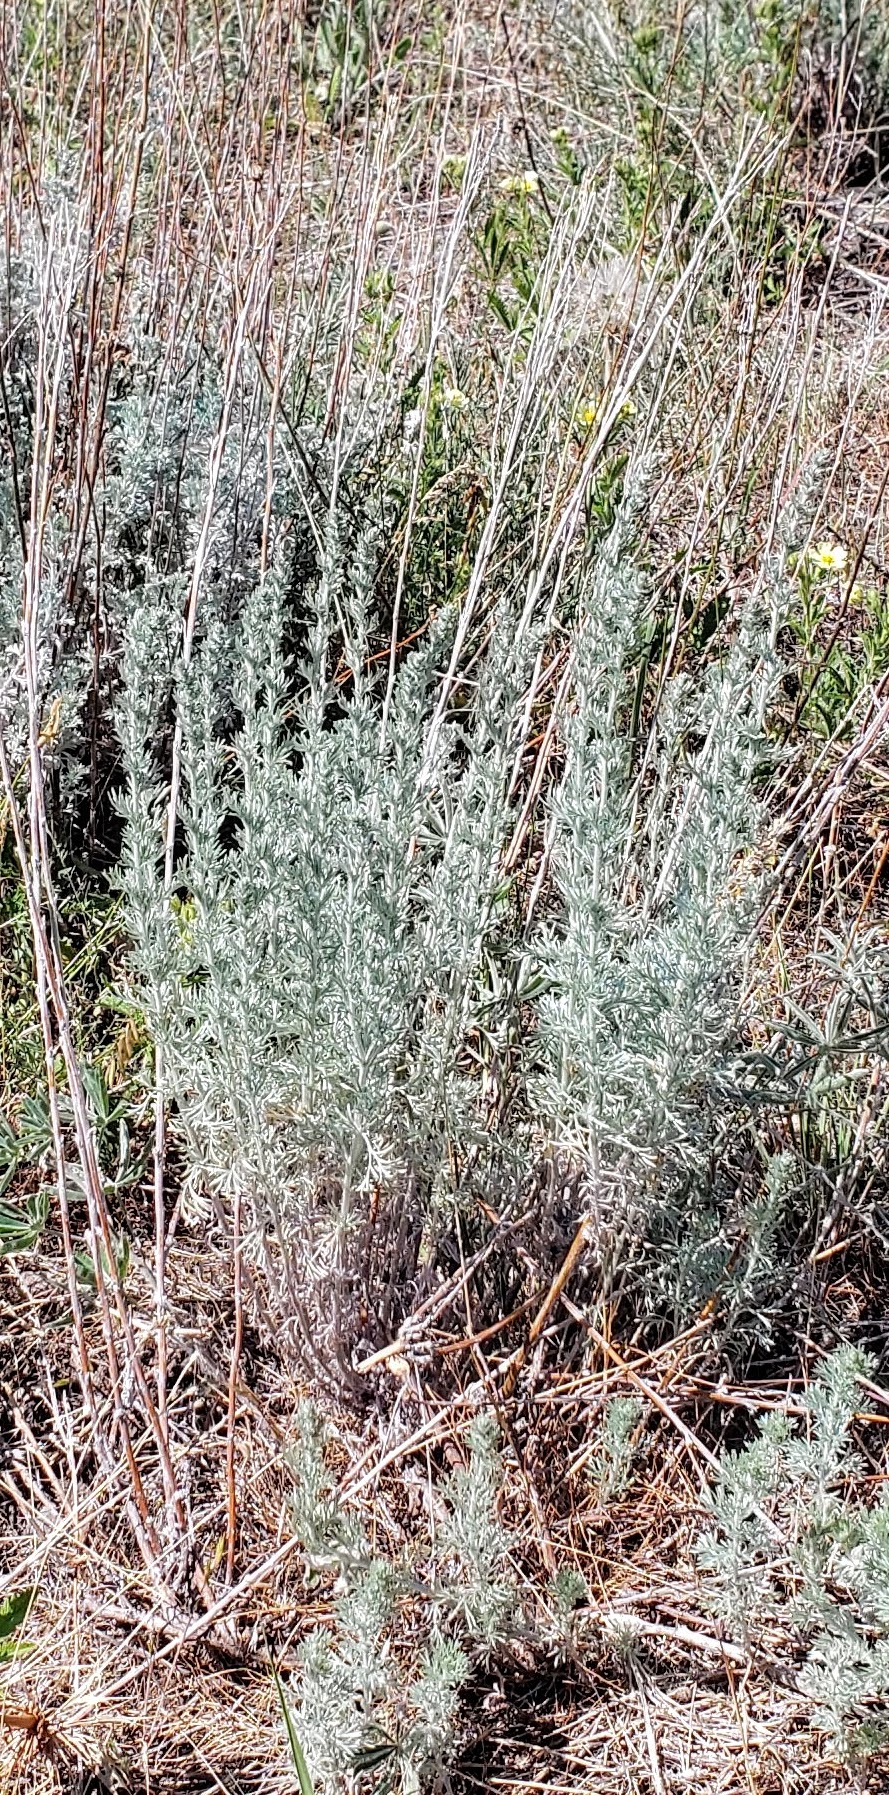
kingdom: Plantae
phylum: Tracheophyta
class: Magnoliopsida
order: Asterales
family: Asteraceae
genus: Artemisia
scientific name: Artemisia frigida
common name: Prairie sagewort
